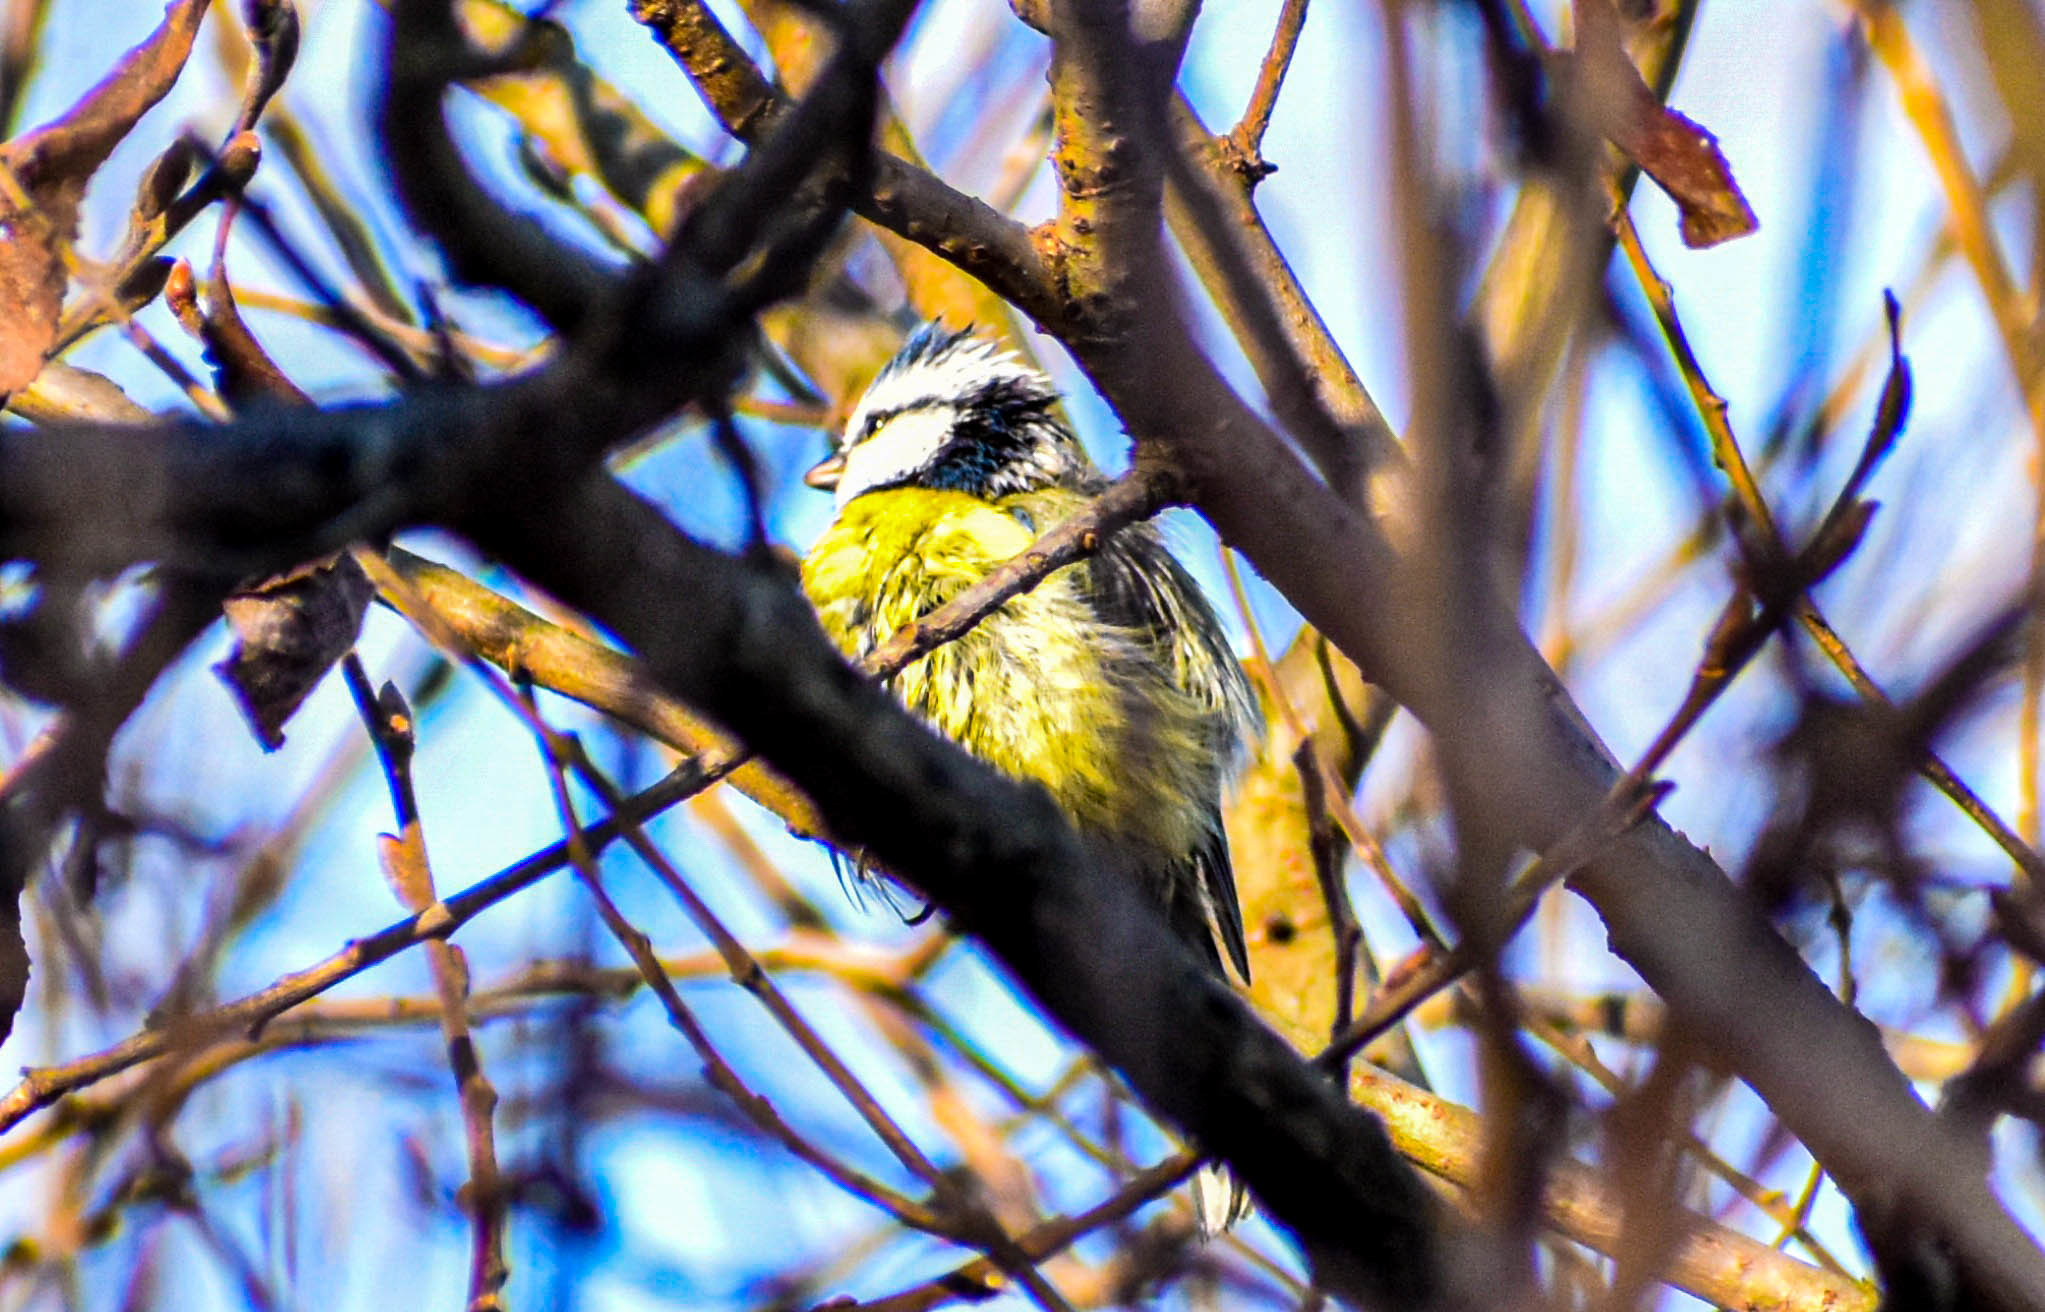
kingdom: Animalia
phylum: Chordata
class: Aves
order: Passeriformes
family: Paridae
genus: Cyanistes
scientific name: Cyanistes caeruleus
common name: Eurasian blue tit
